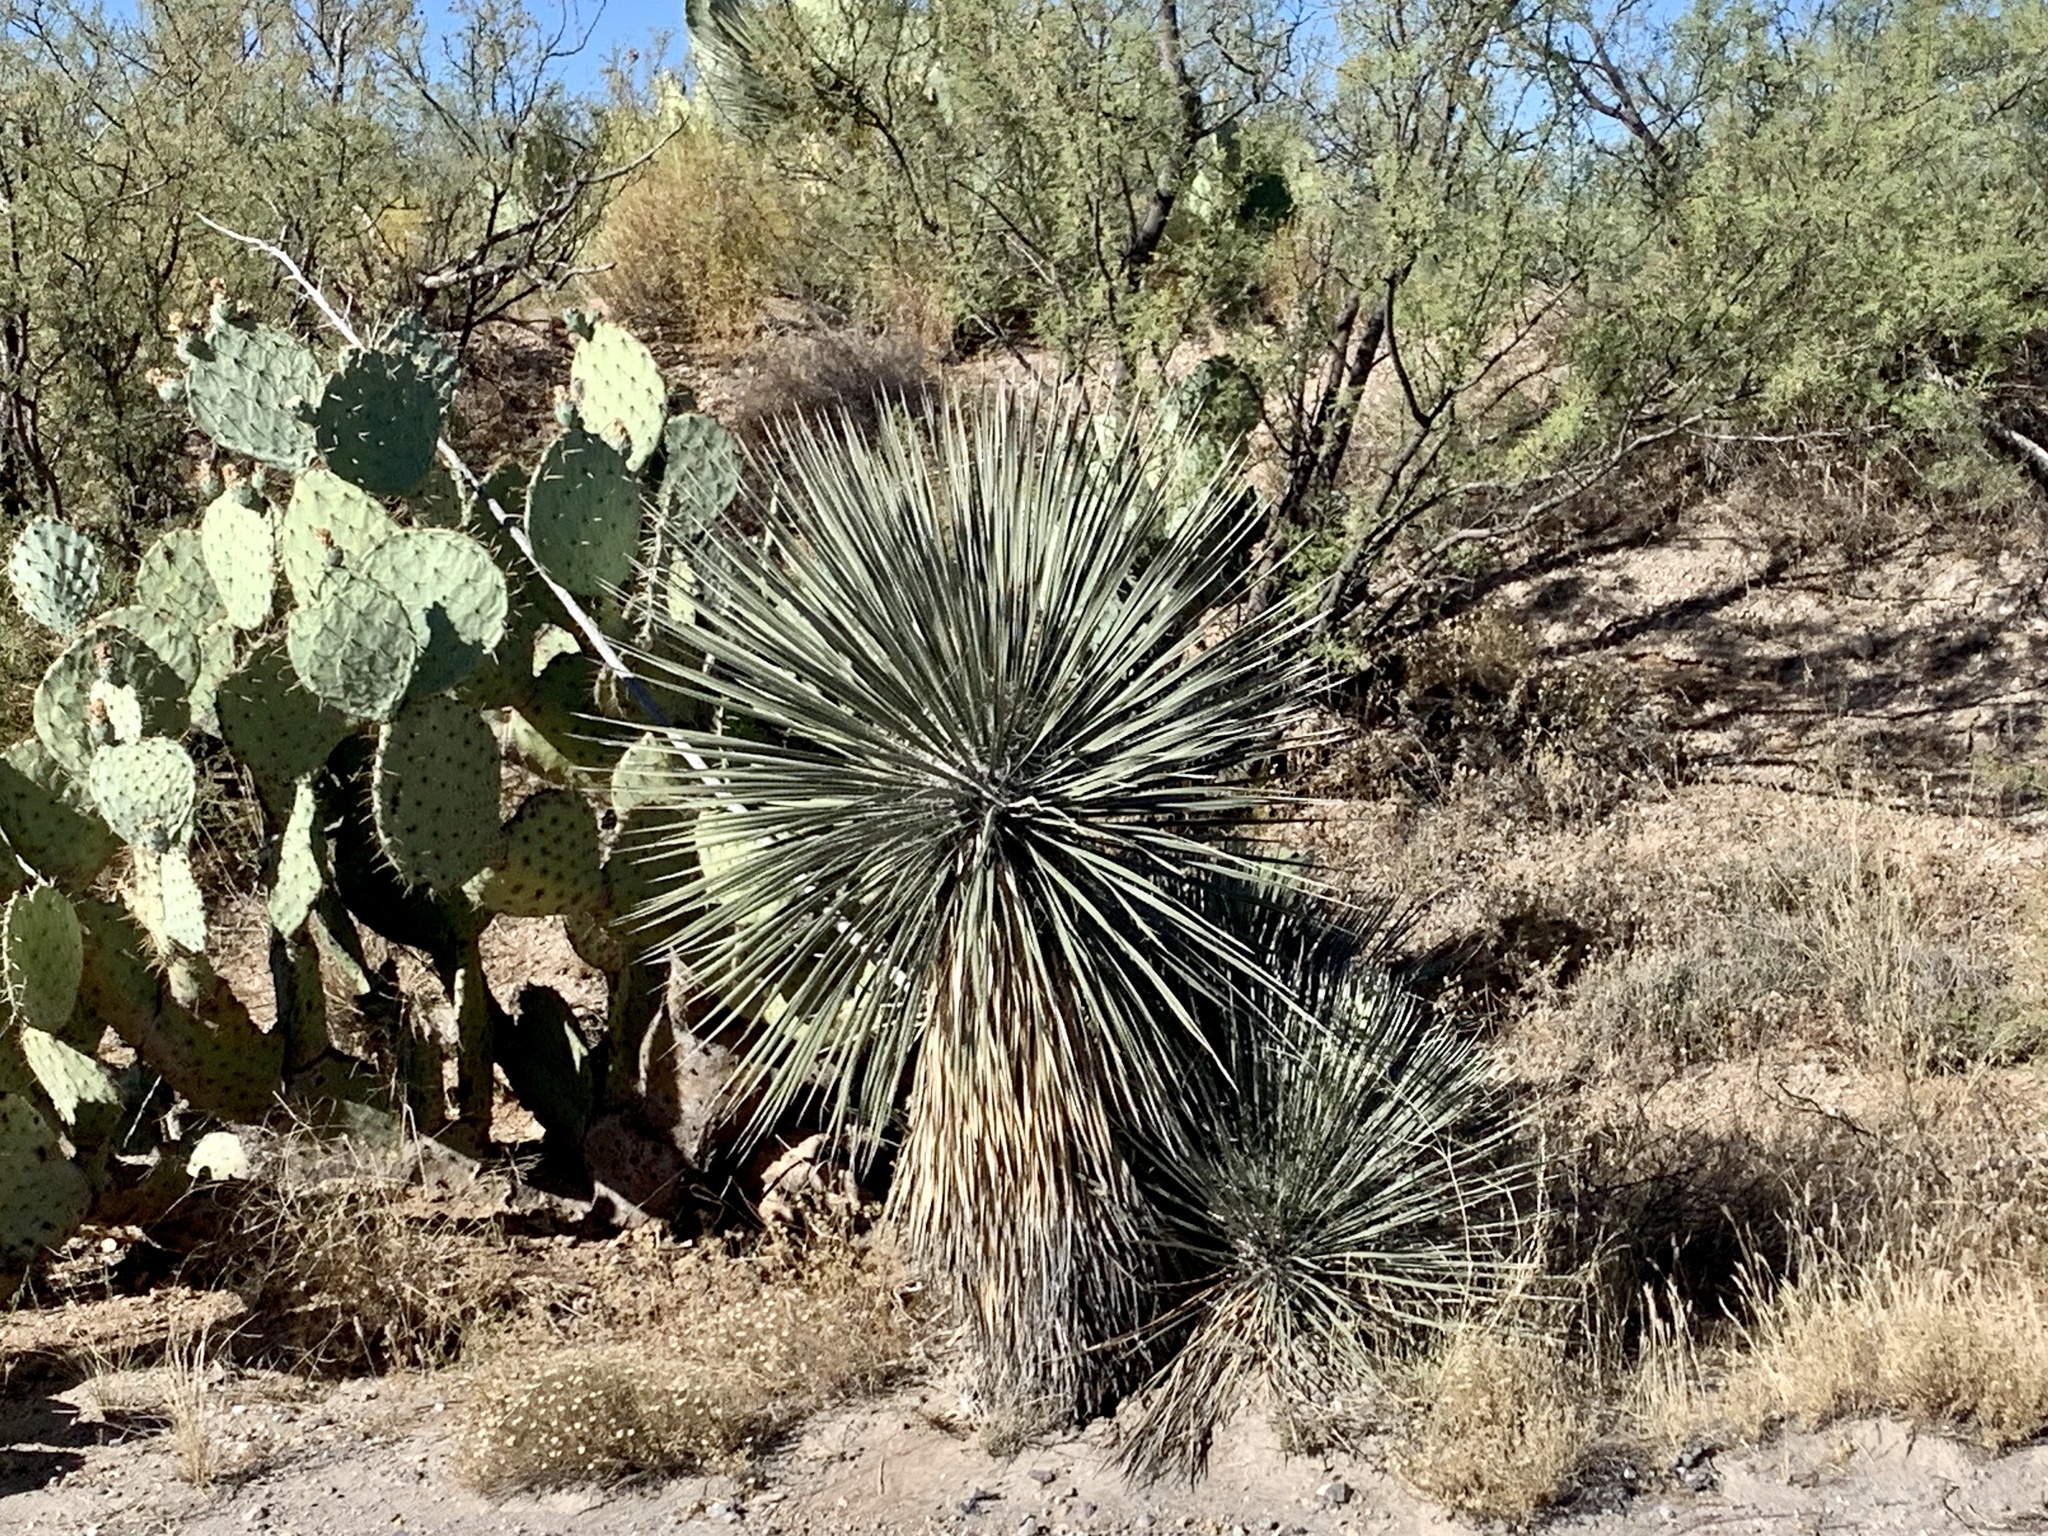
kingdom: Plantae
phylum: Tracheophyta
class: Liliopsida
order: Asparagales
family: Asparagaceae
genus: Yucca
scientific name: Yucca elata
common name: Palmella
